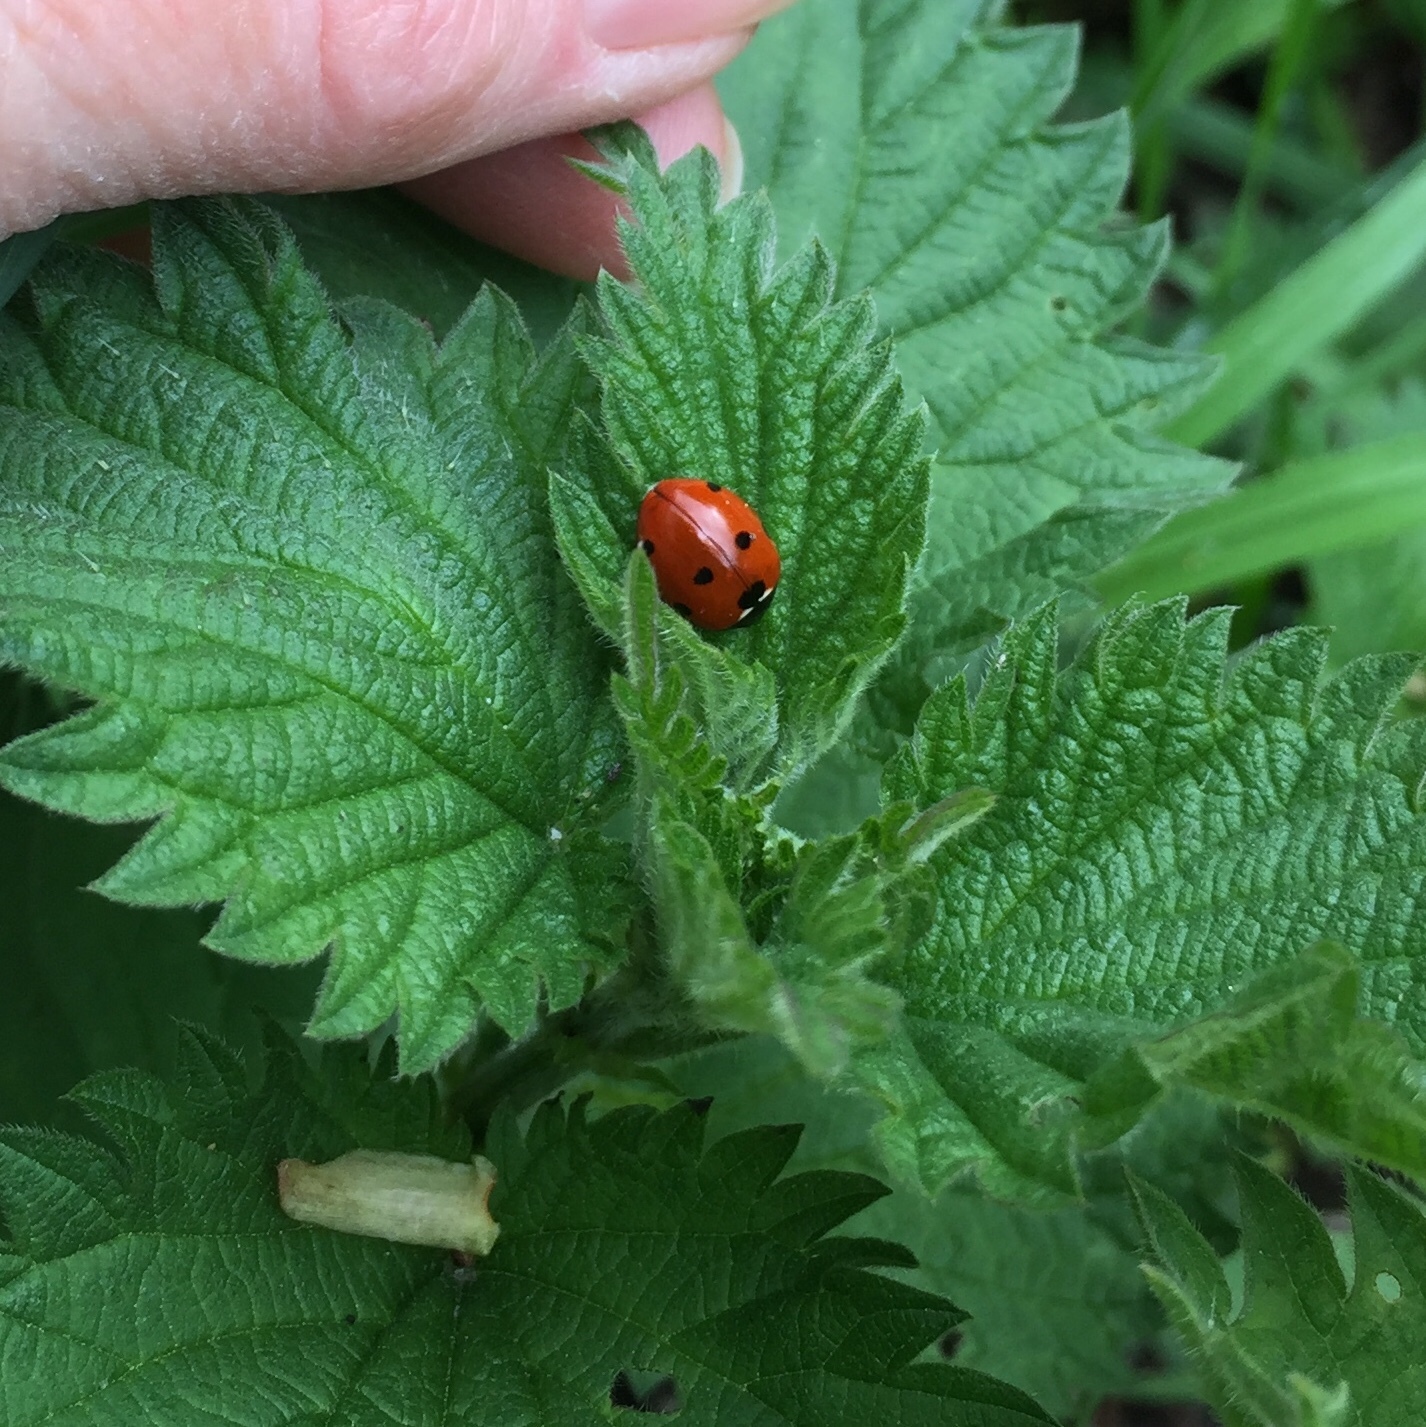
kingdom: Animalia
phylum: Arthropoda
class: Insecta
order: Coleoptera
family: Coccinellidae
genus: Coccinella
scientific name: Coccinella septempunctata
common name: Sevenspotted lady beetle
